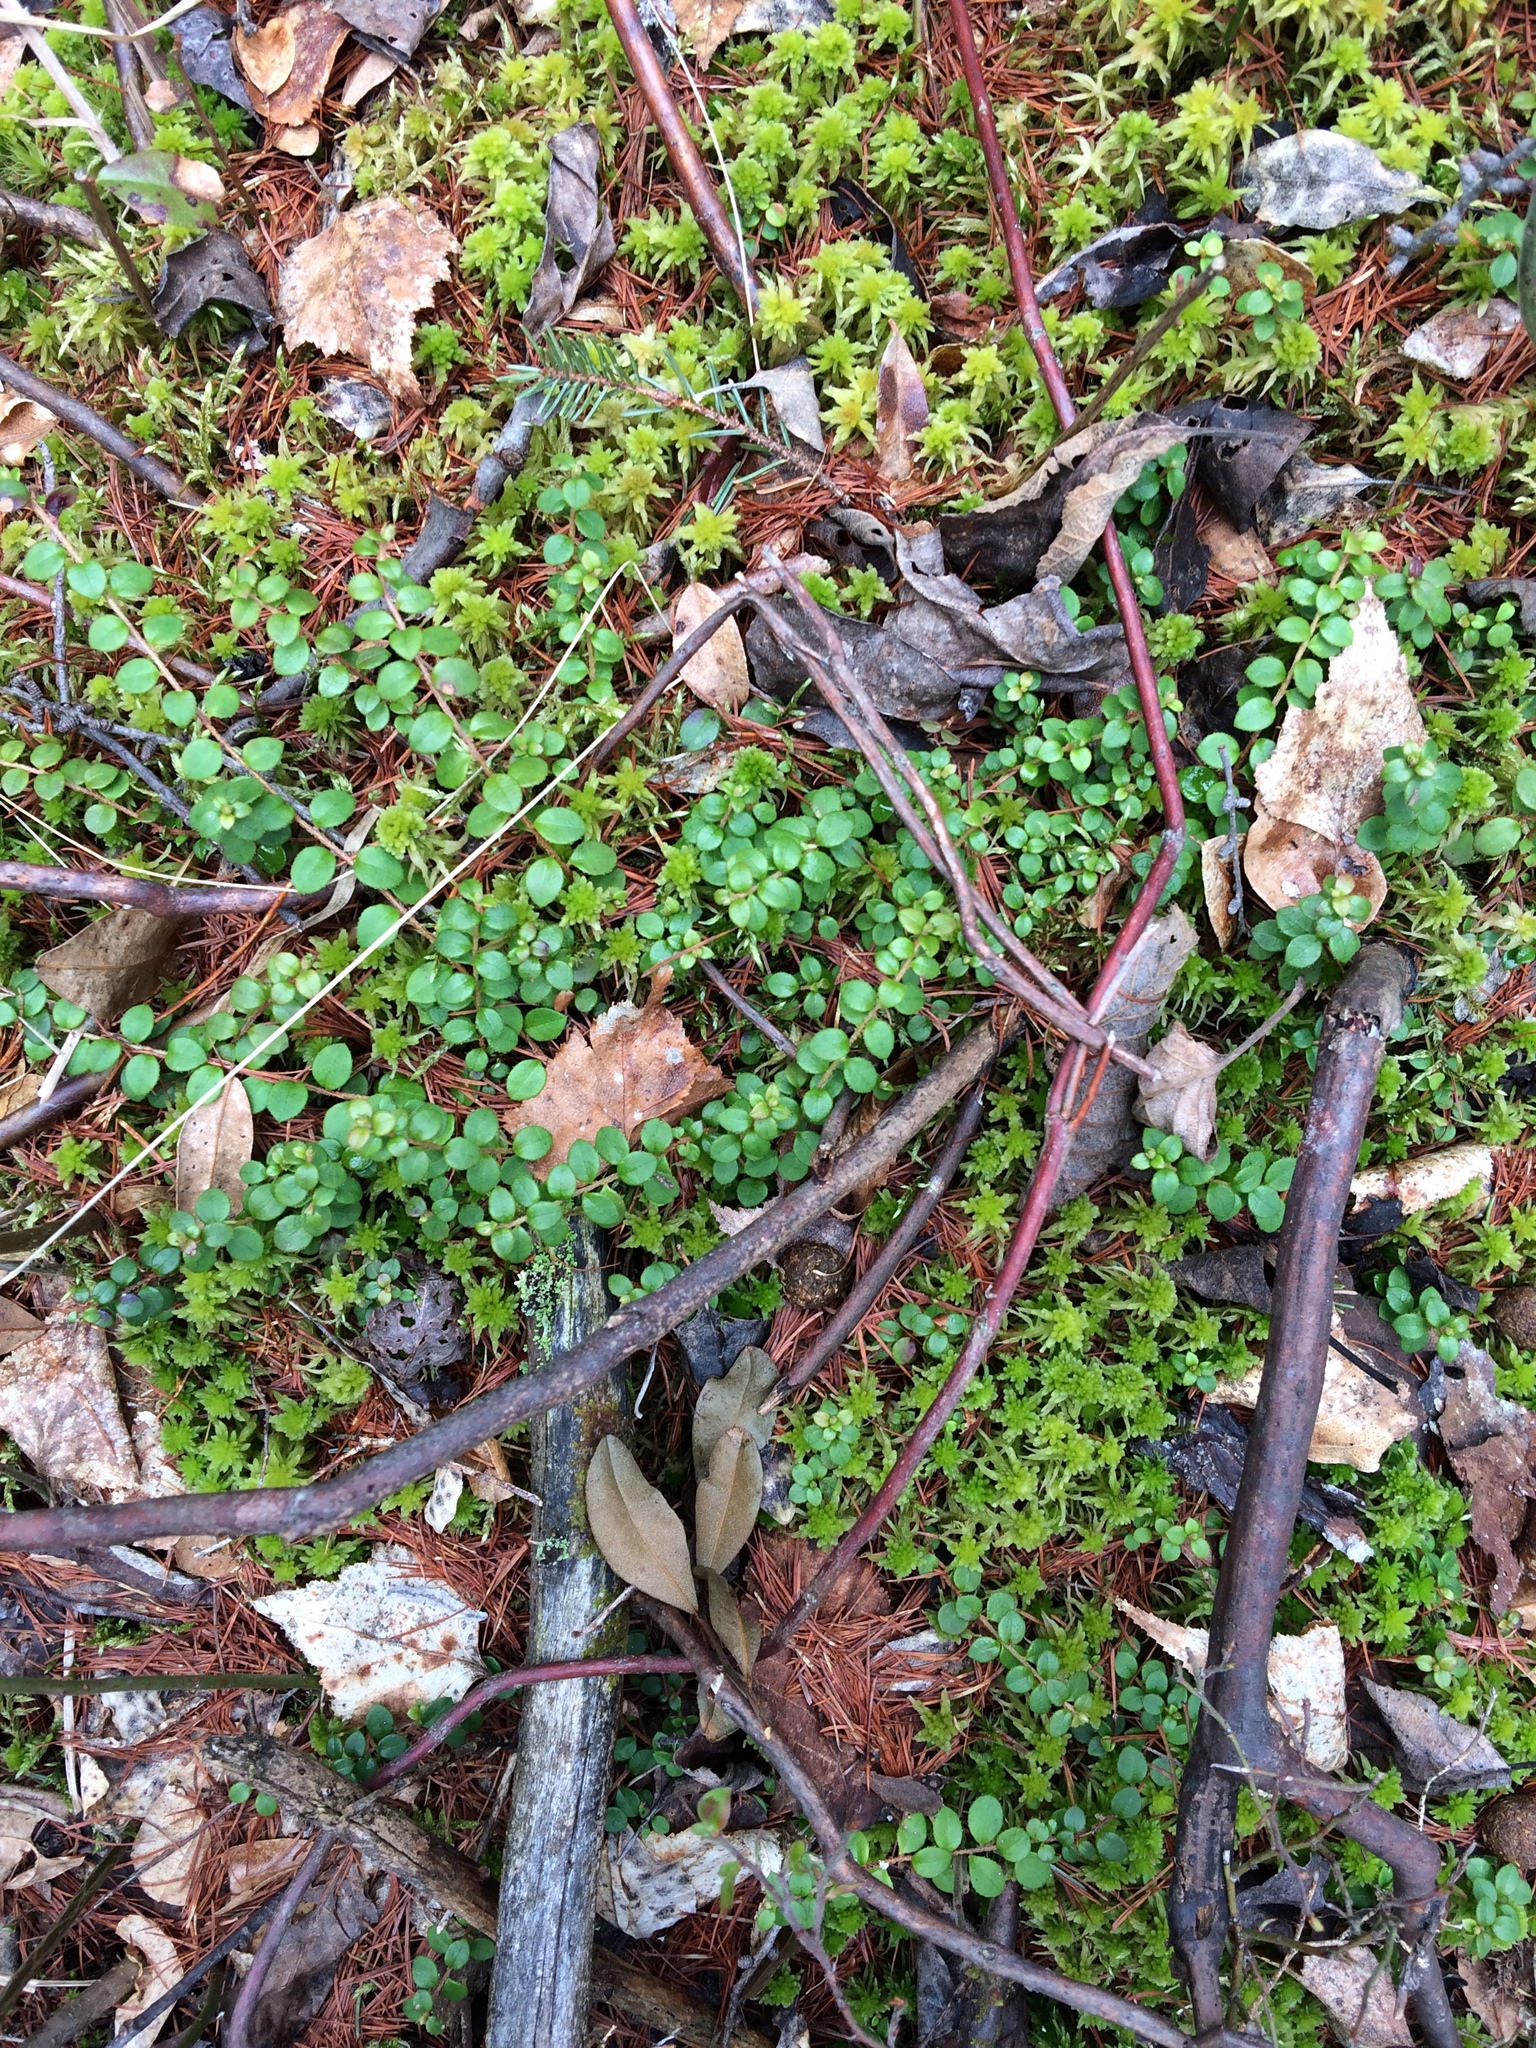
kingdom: Plantae
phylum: Tracheophyta
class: Magnoliopsida
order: Ericales
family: Ericaceae
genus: Gaultheria
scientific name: Gaultheria hispidula
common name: Cancer wintergreen
